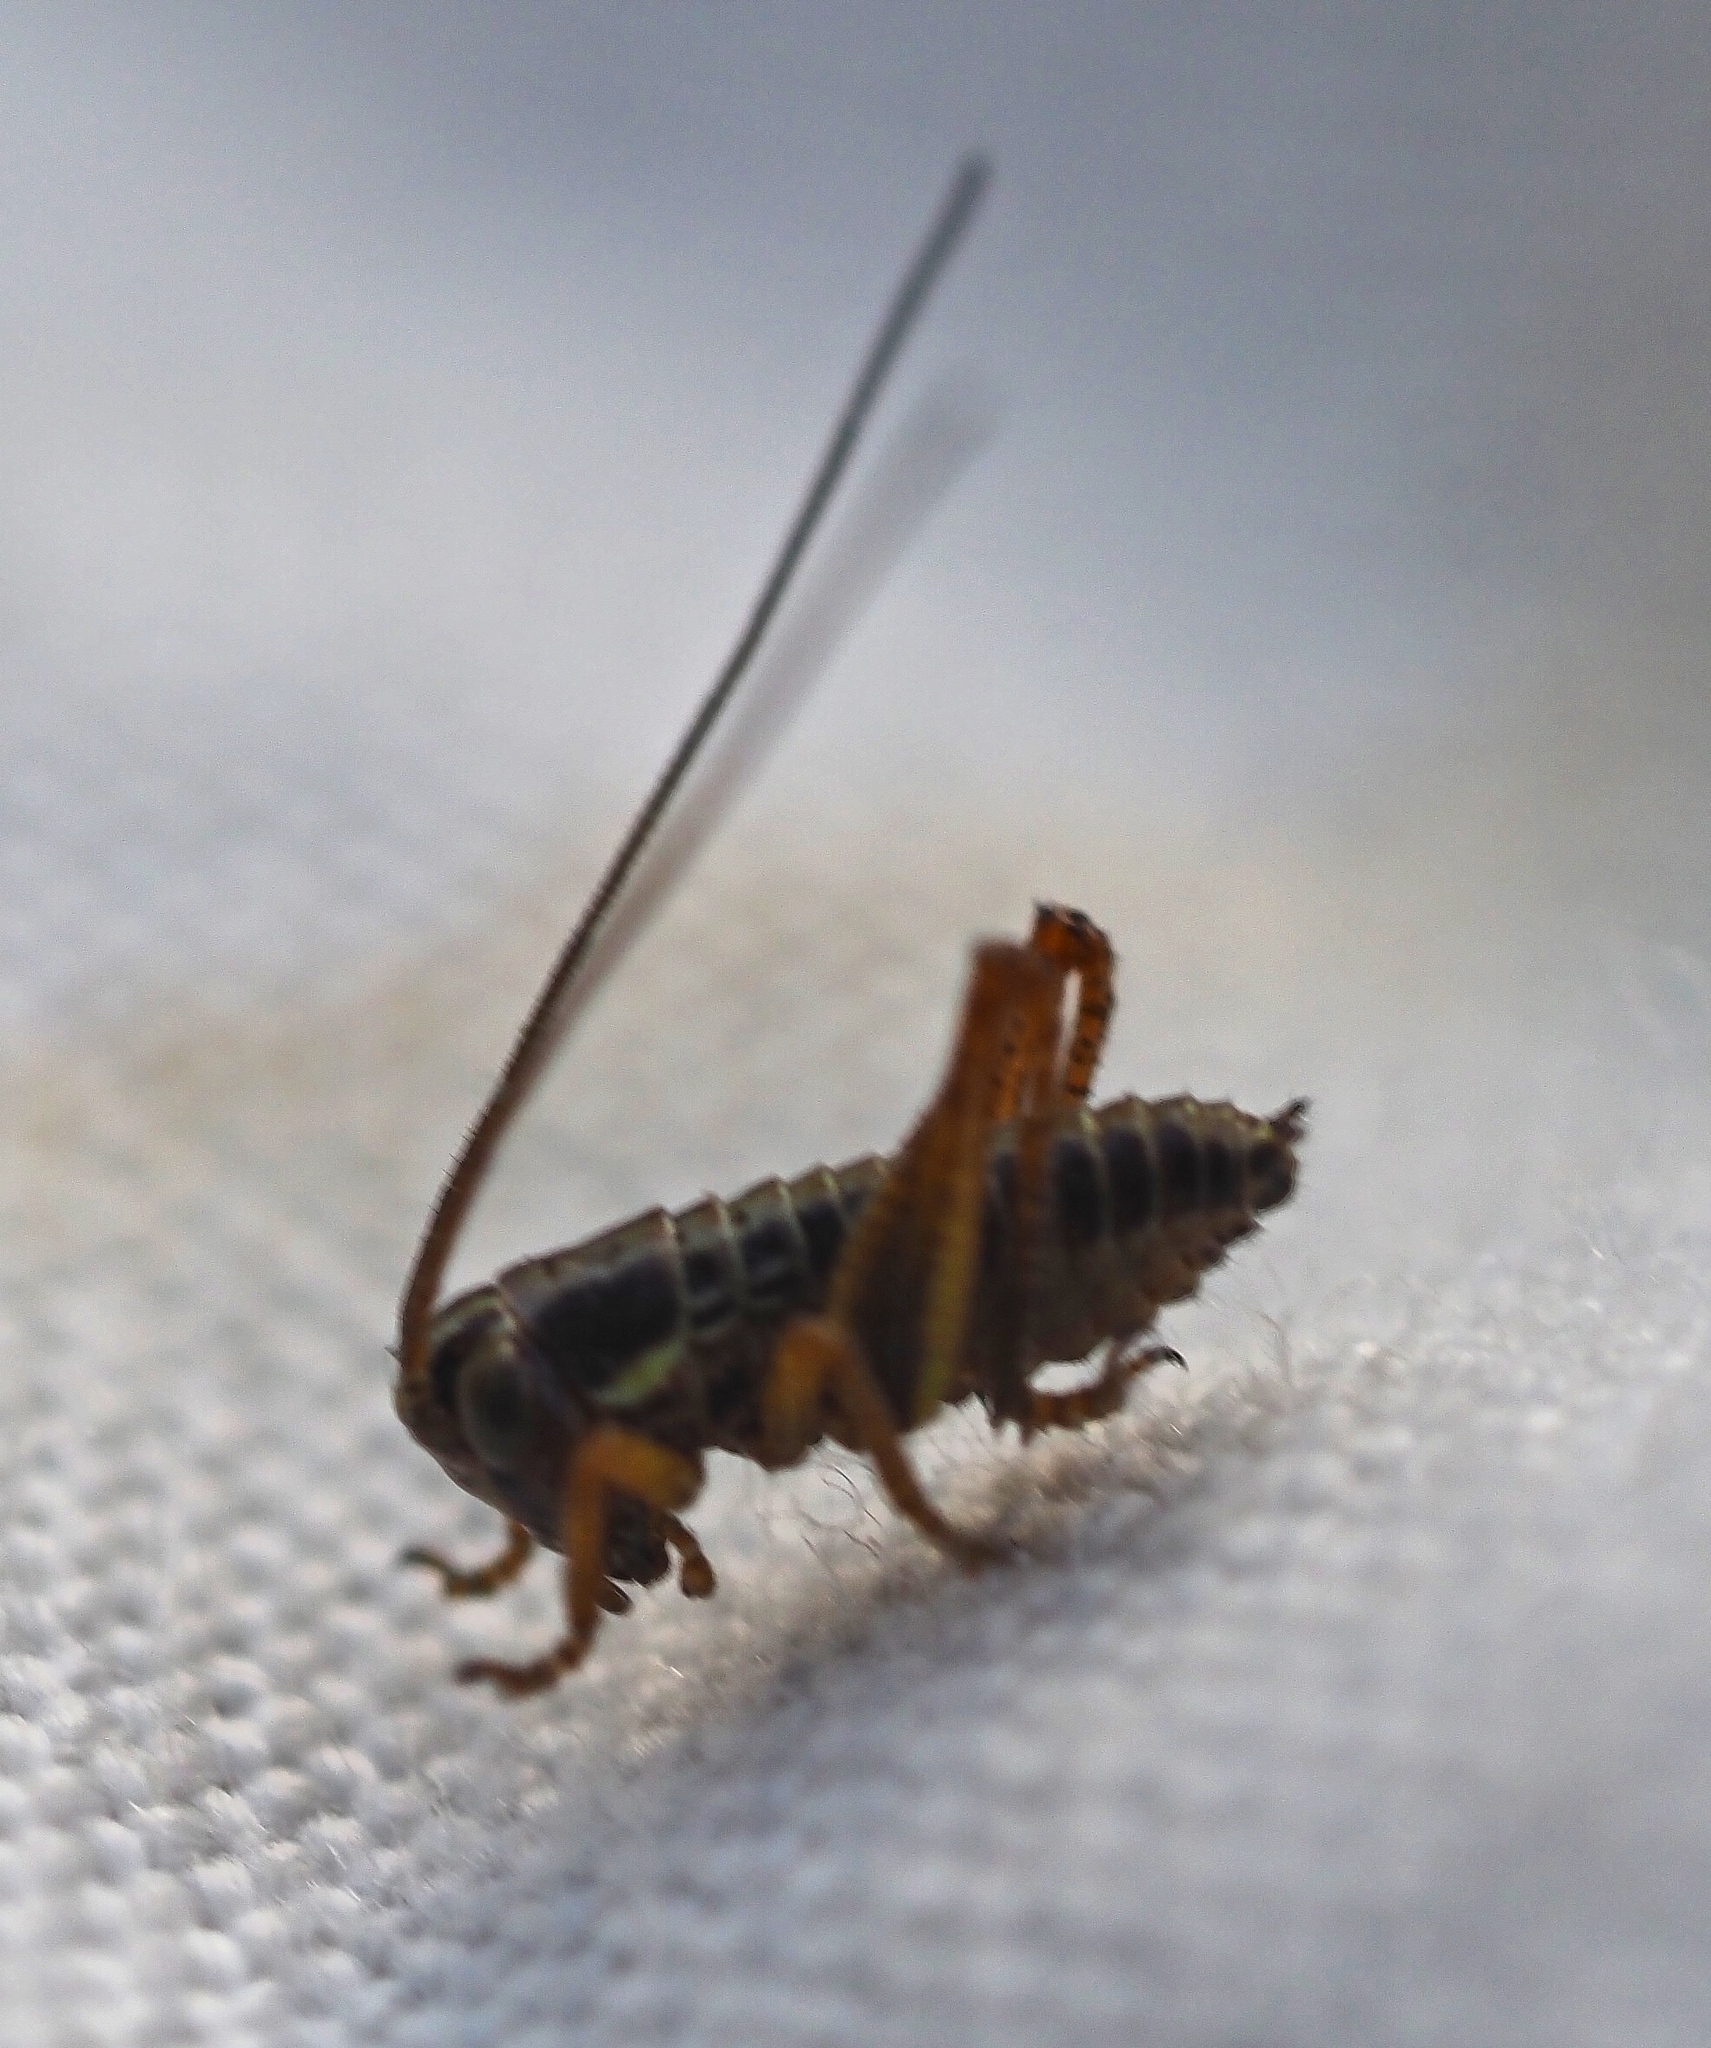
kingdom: Animalia
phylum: Arthropoda
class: Insecta
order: Orthoptera
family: Tettigoniidae
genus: Roeseliana
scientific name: Roeseliana roeselii
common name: Roesel's bush cricket
